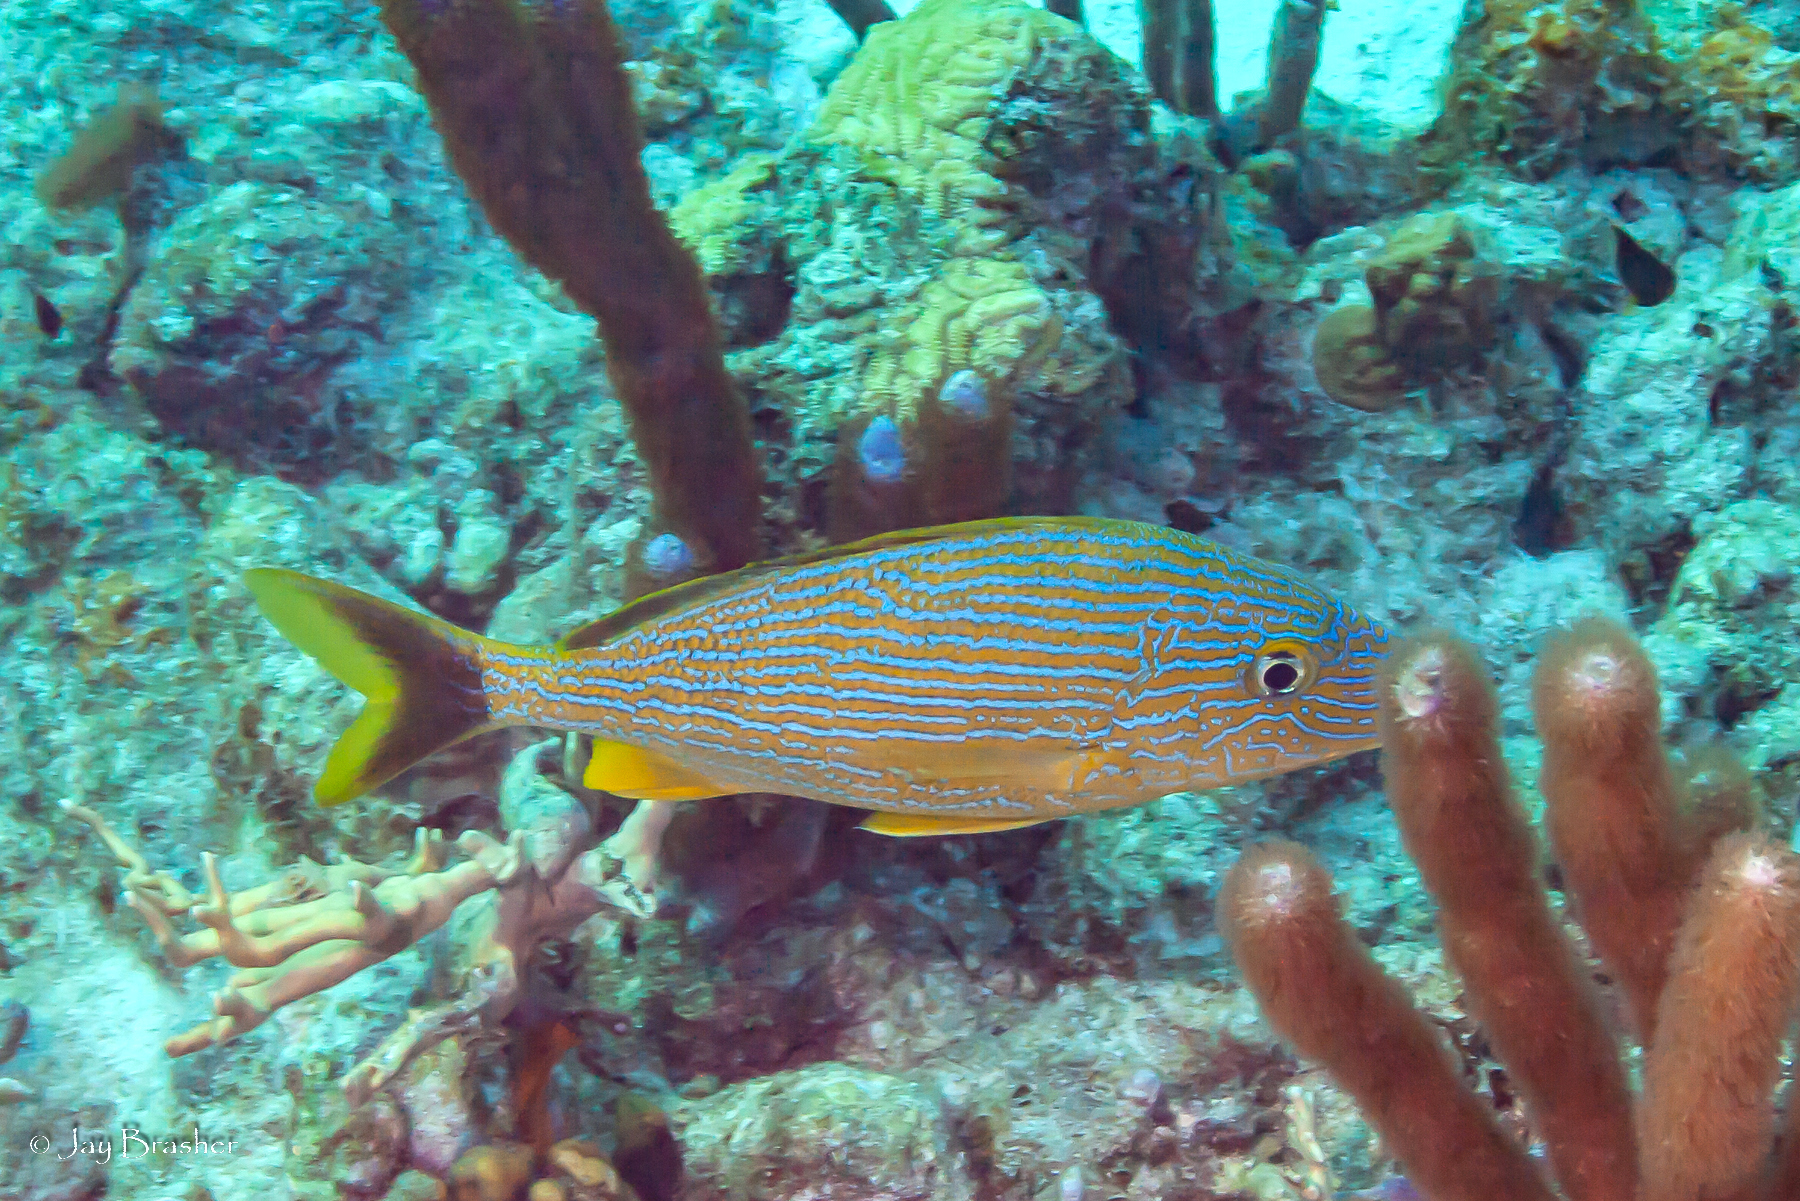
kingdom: Animalia
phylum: Chordata
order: Perciformes
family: Haemulidae
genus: Haemulon
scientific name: Haemulon sciurus
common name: Bluestriped grunt
